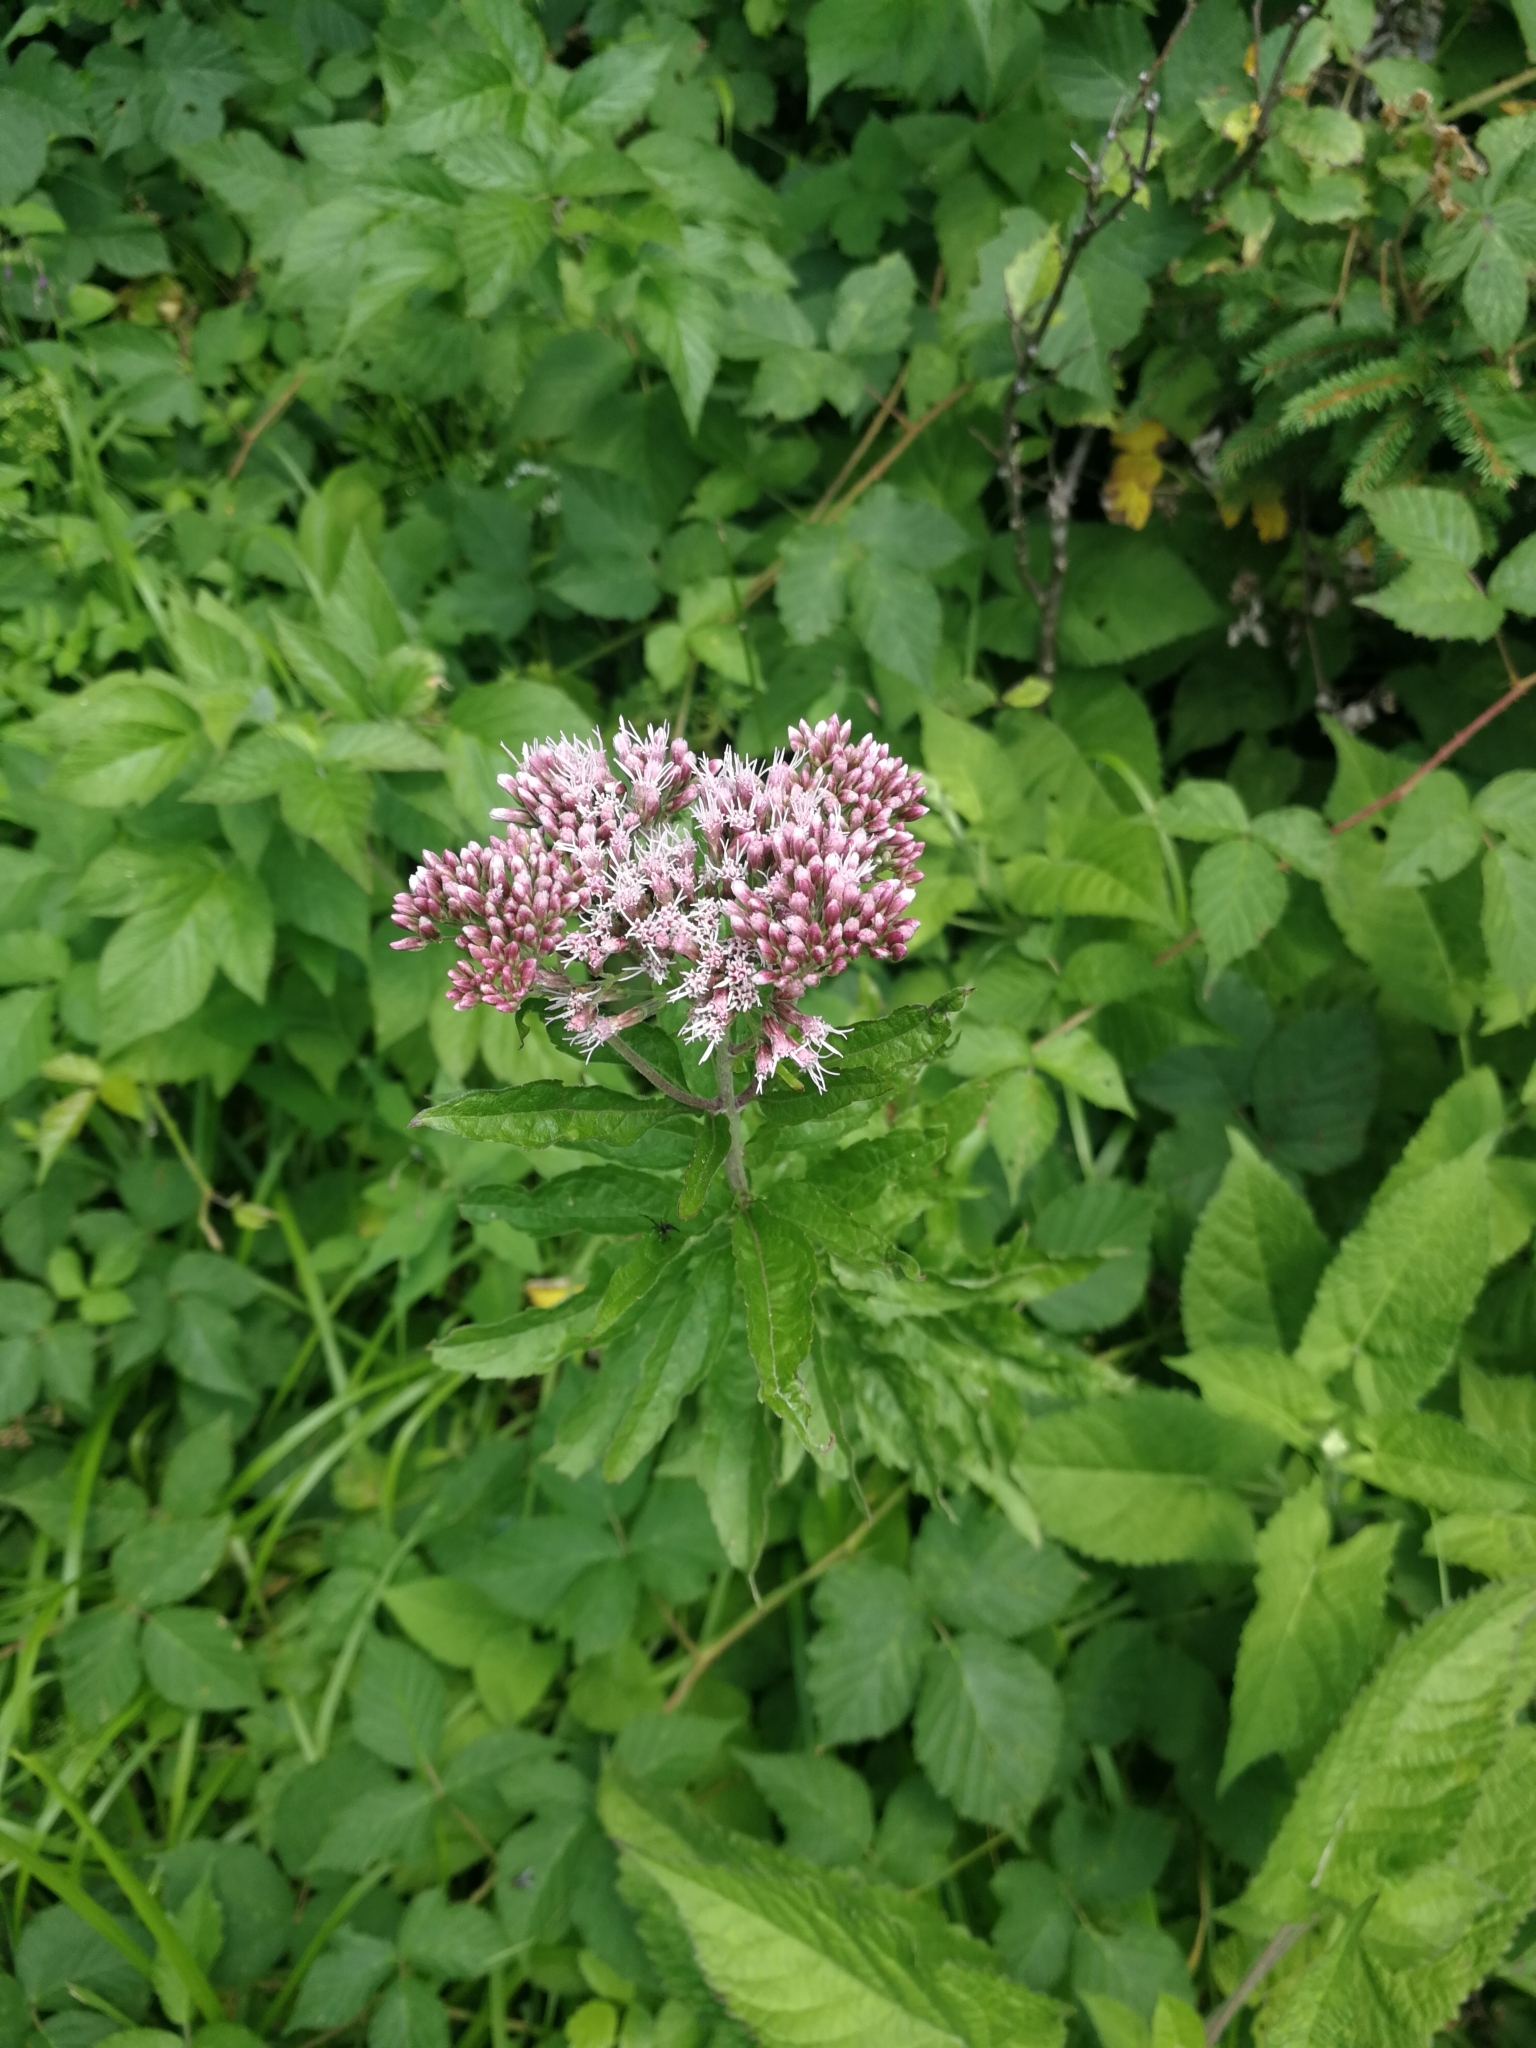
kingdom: Plantae
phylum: Tracheophyta
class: Magnoliopsida
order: Asterales
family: Asteraceae
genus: Eupatorium
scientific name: Eupatorium cannabinum
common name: Hemp-agrimony
